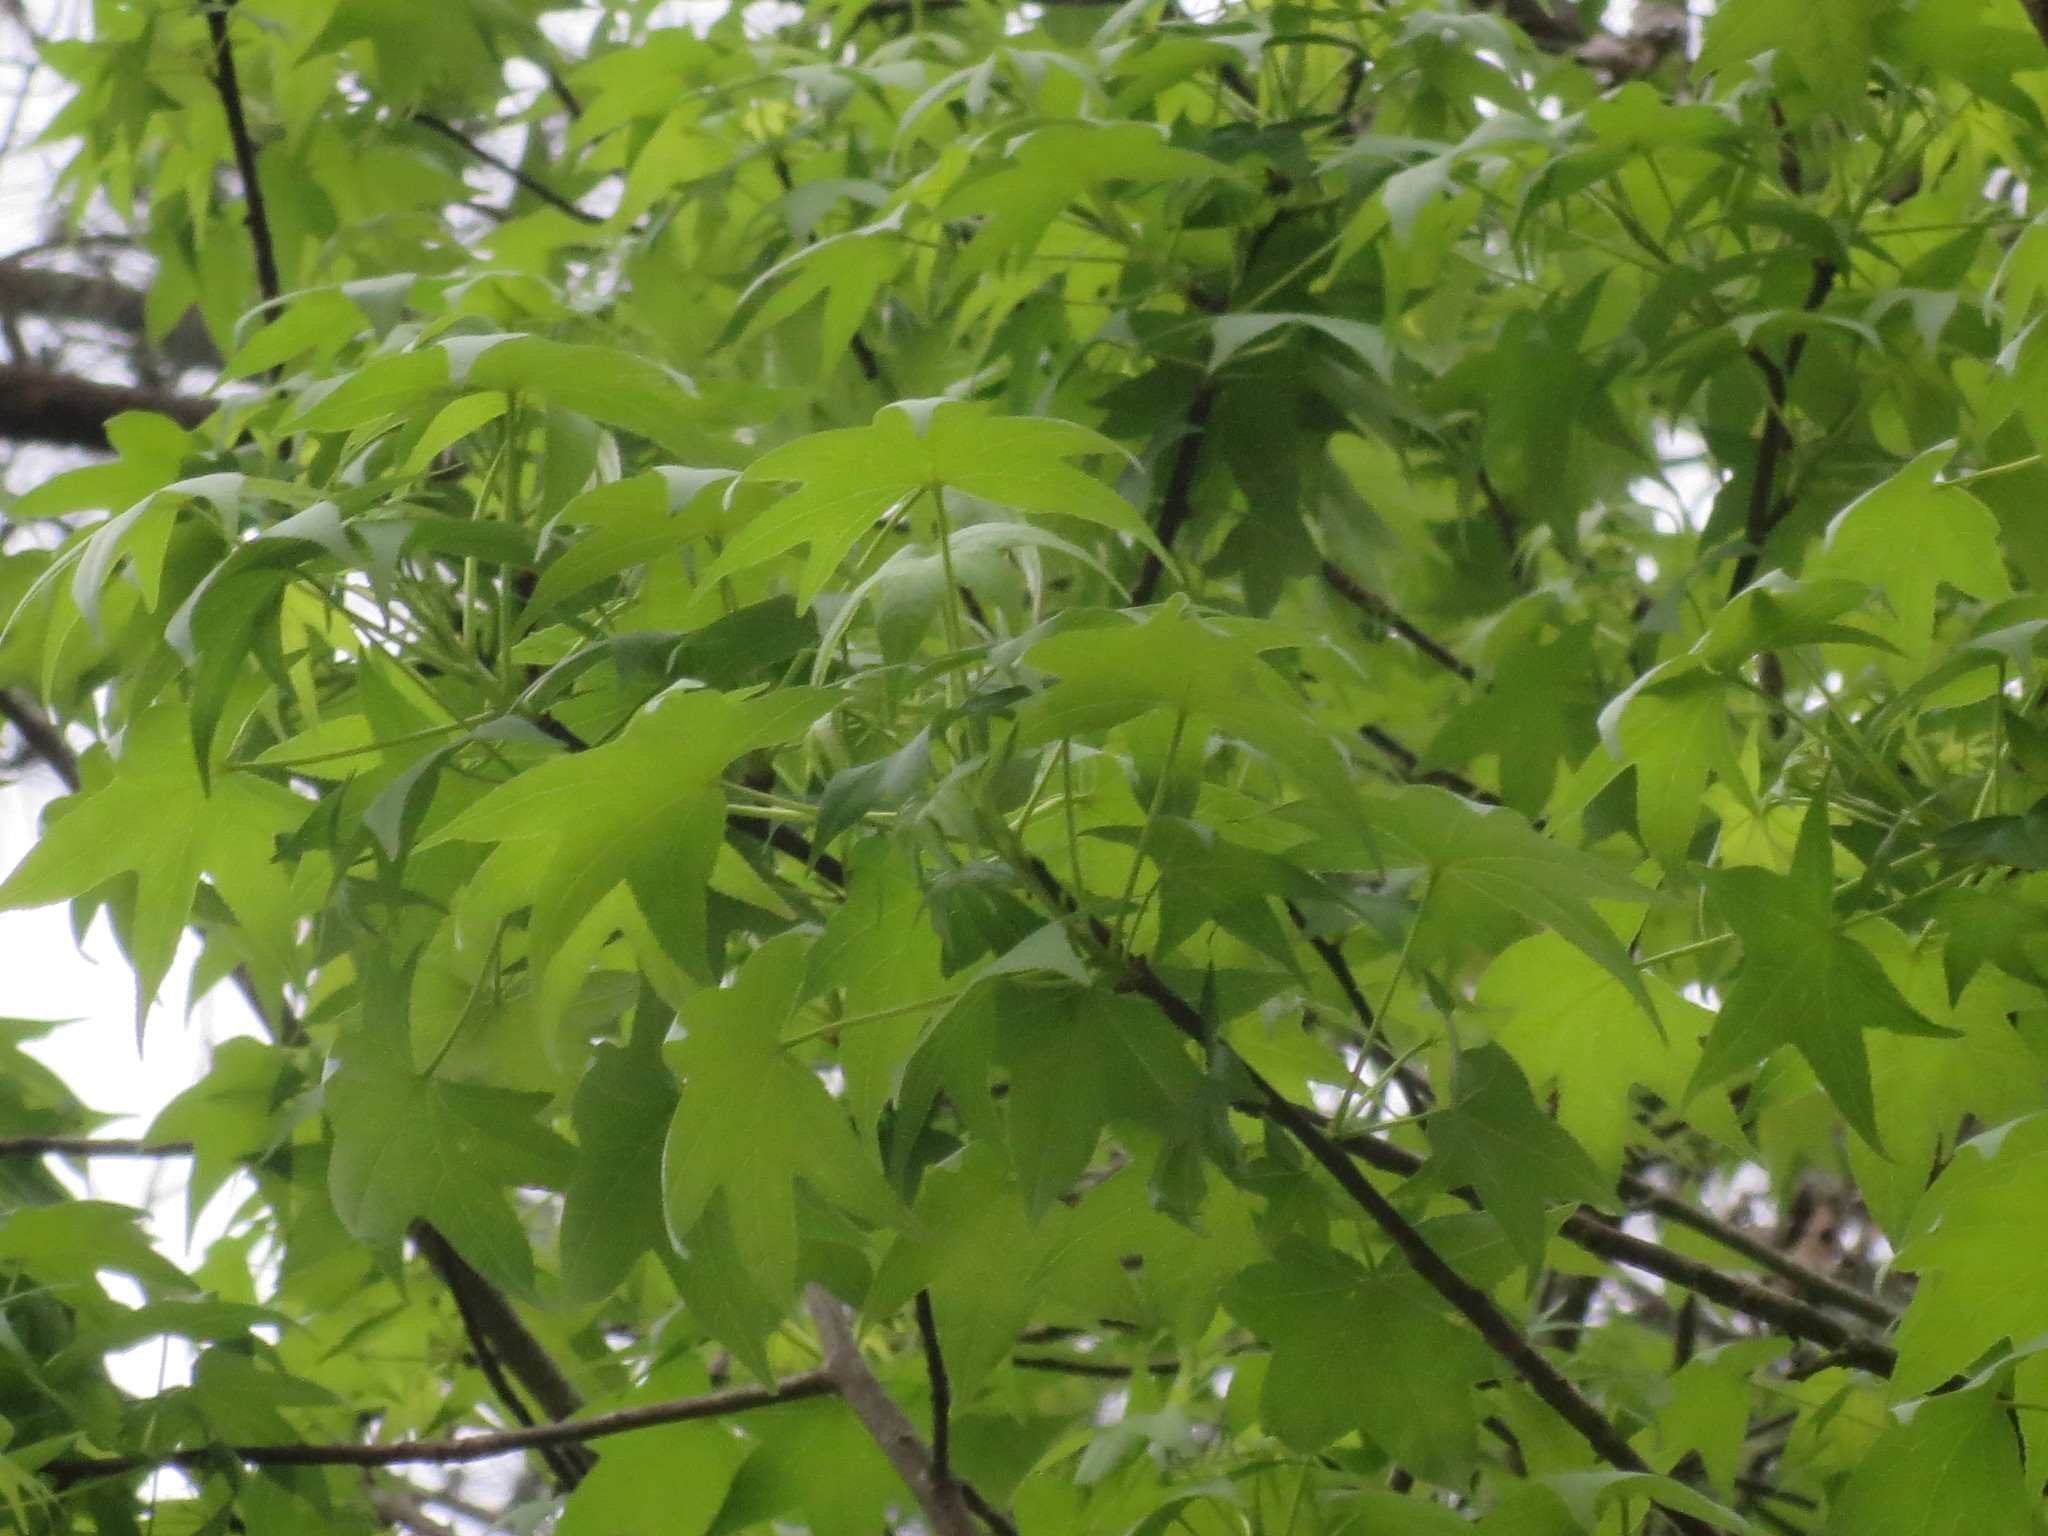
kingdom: Plantae
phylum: Tracheophyta
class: Magnoliopsida
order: Saxifragales
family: Altingiaceae
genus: Liquidambar
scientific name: Liquidambar styraciflua
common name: Sweet gum
